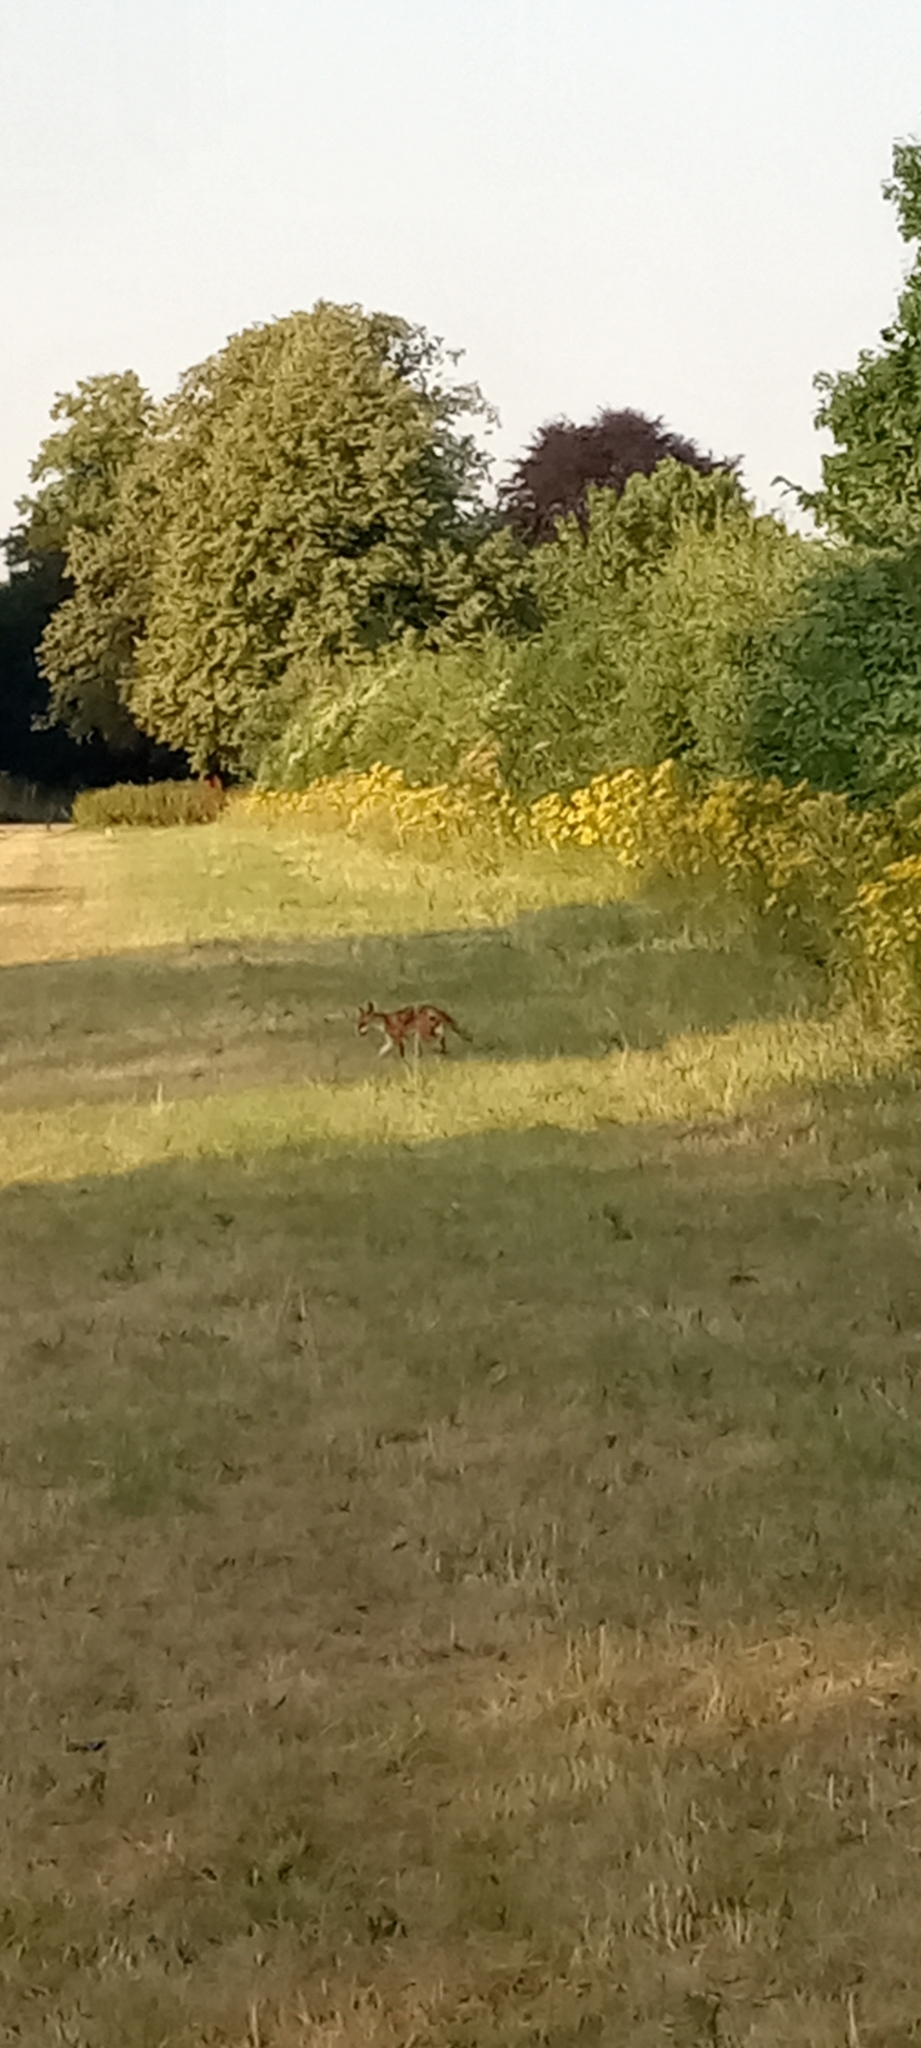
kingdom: Animalia
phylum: Chordata
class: Mammalia
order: Carnivora
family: Canidae
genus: Vulpes
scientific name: Vulpes vulpes
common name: Red fox
